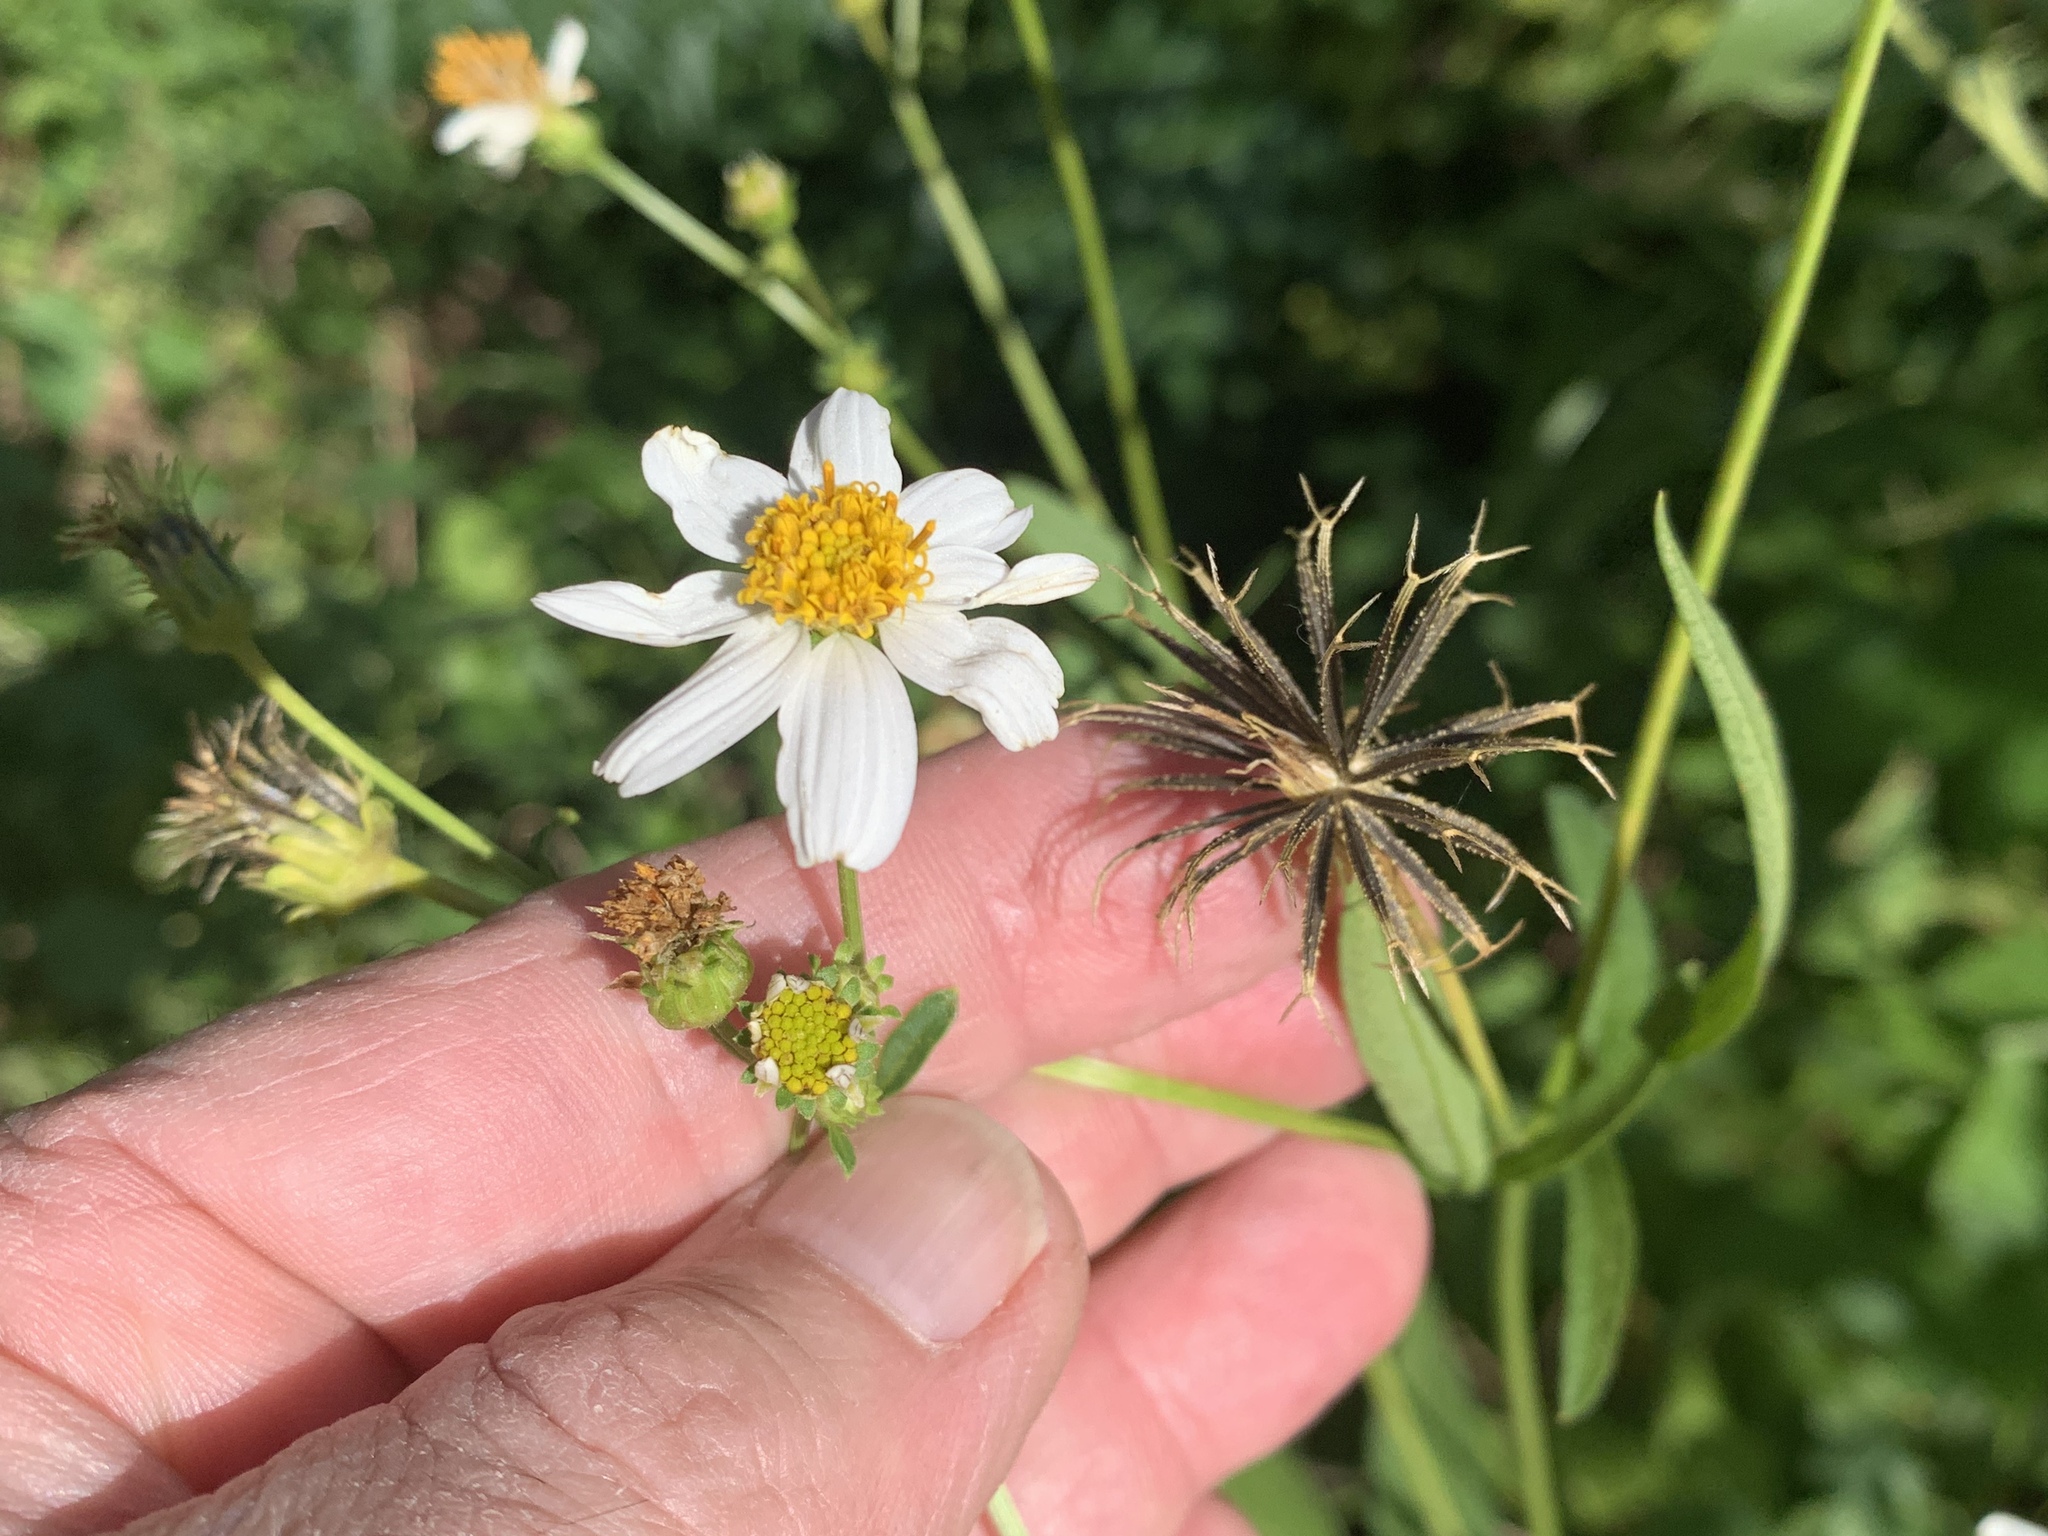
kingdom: Plantae
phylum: Tracheophyta
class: Magnoliopsida
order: Asterales
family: Asteraceae
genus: Bidens
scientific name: Bidens alba
